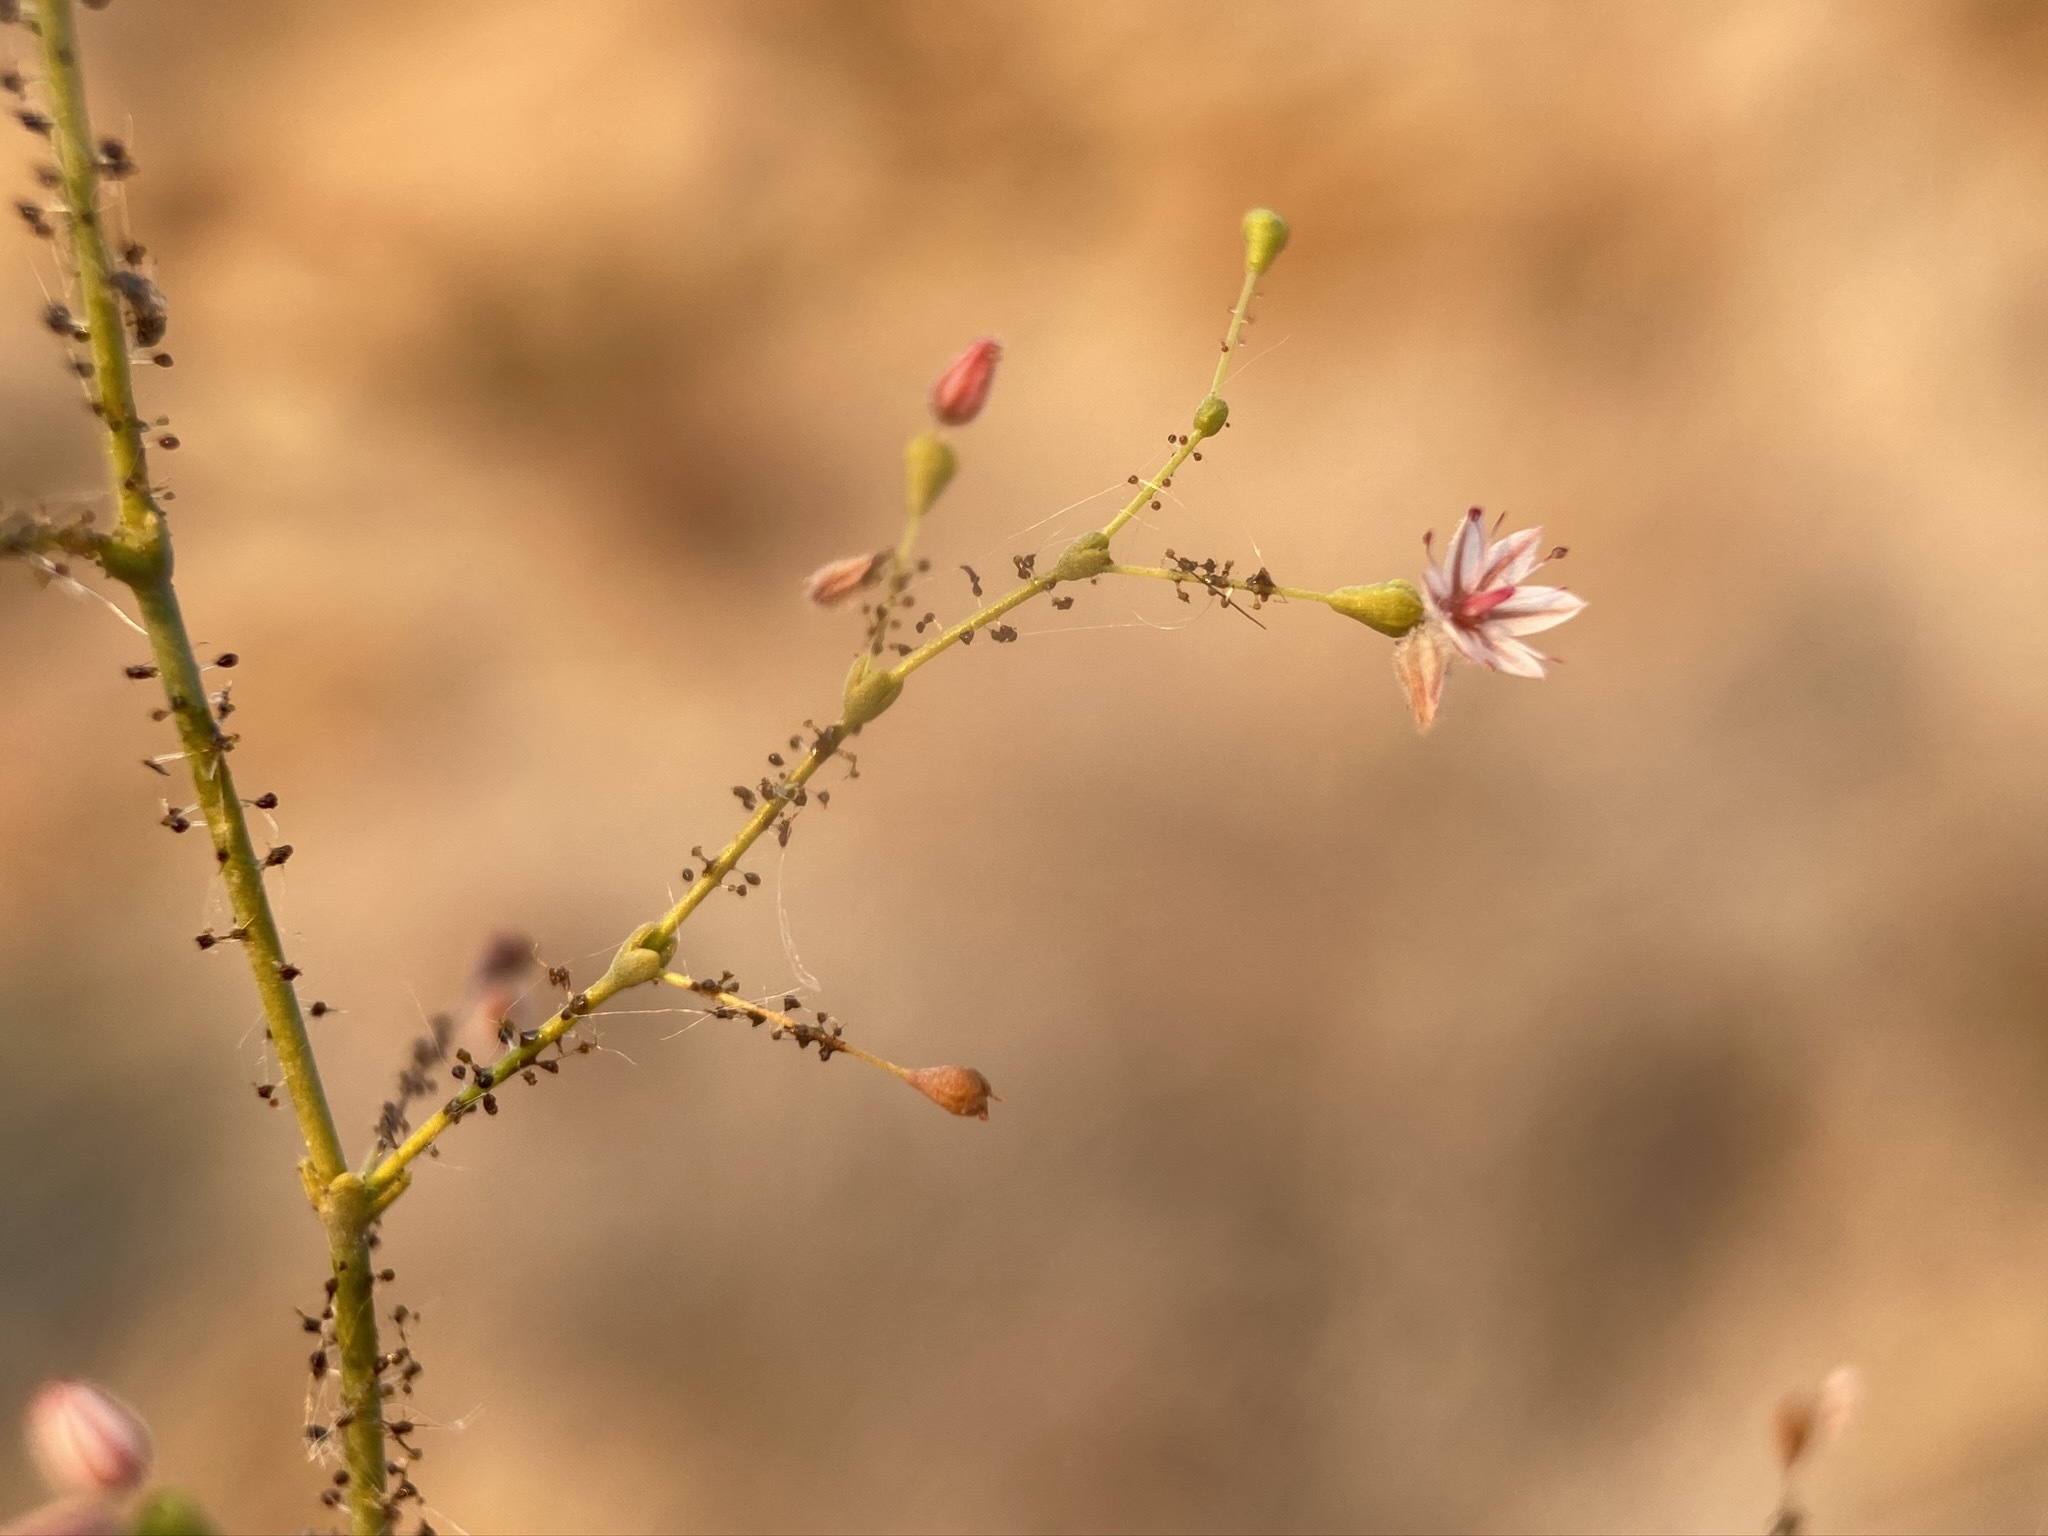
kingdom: Plantae
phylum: Tracheophyta
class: Magnoliopsida
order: Caryophyllales
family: Polygonaceae
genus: Eriogonum
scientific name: Eriogonum glandulosum
